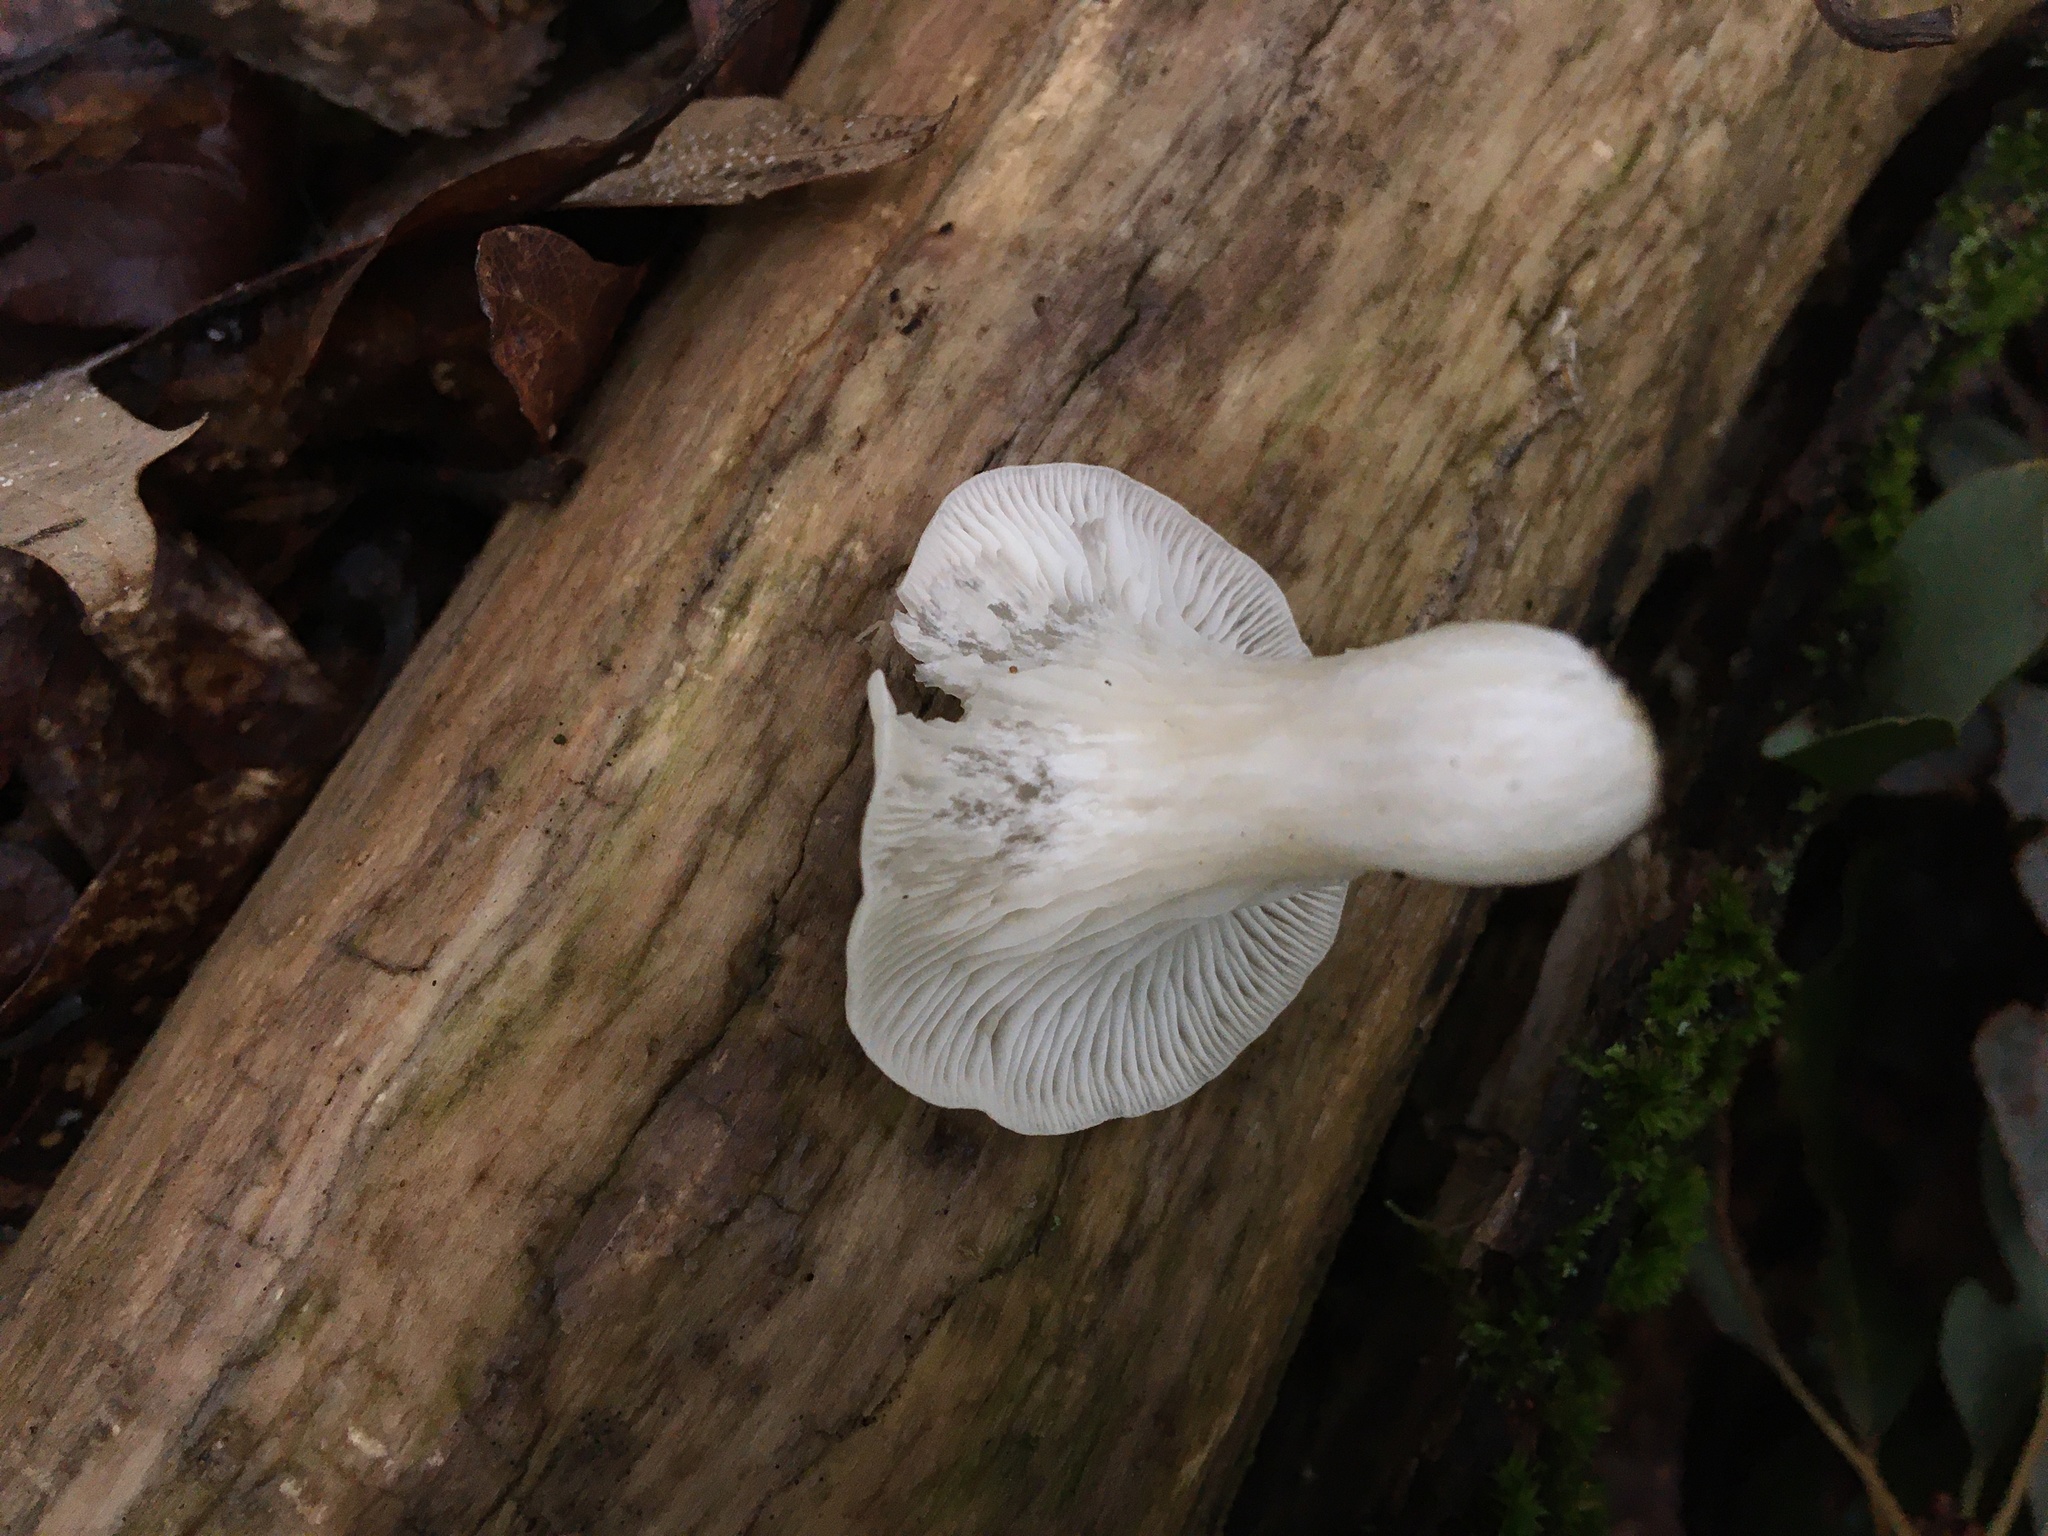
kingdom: Fungi
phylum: Basidiomycota
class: Agaricomycetes
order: Agaricales
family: Pleurotaceae
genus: Pleurotus
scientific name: Pleurotus pulmonarius
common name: Pale oyster
